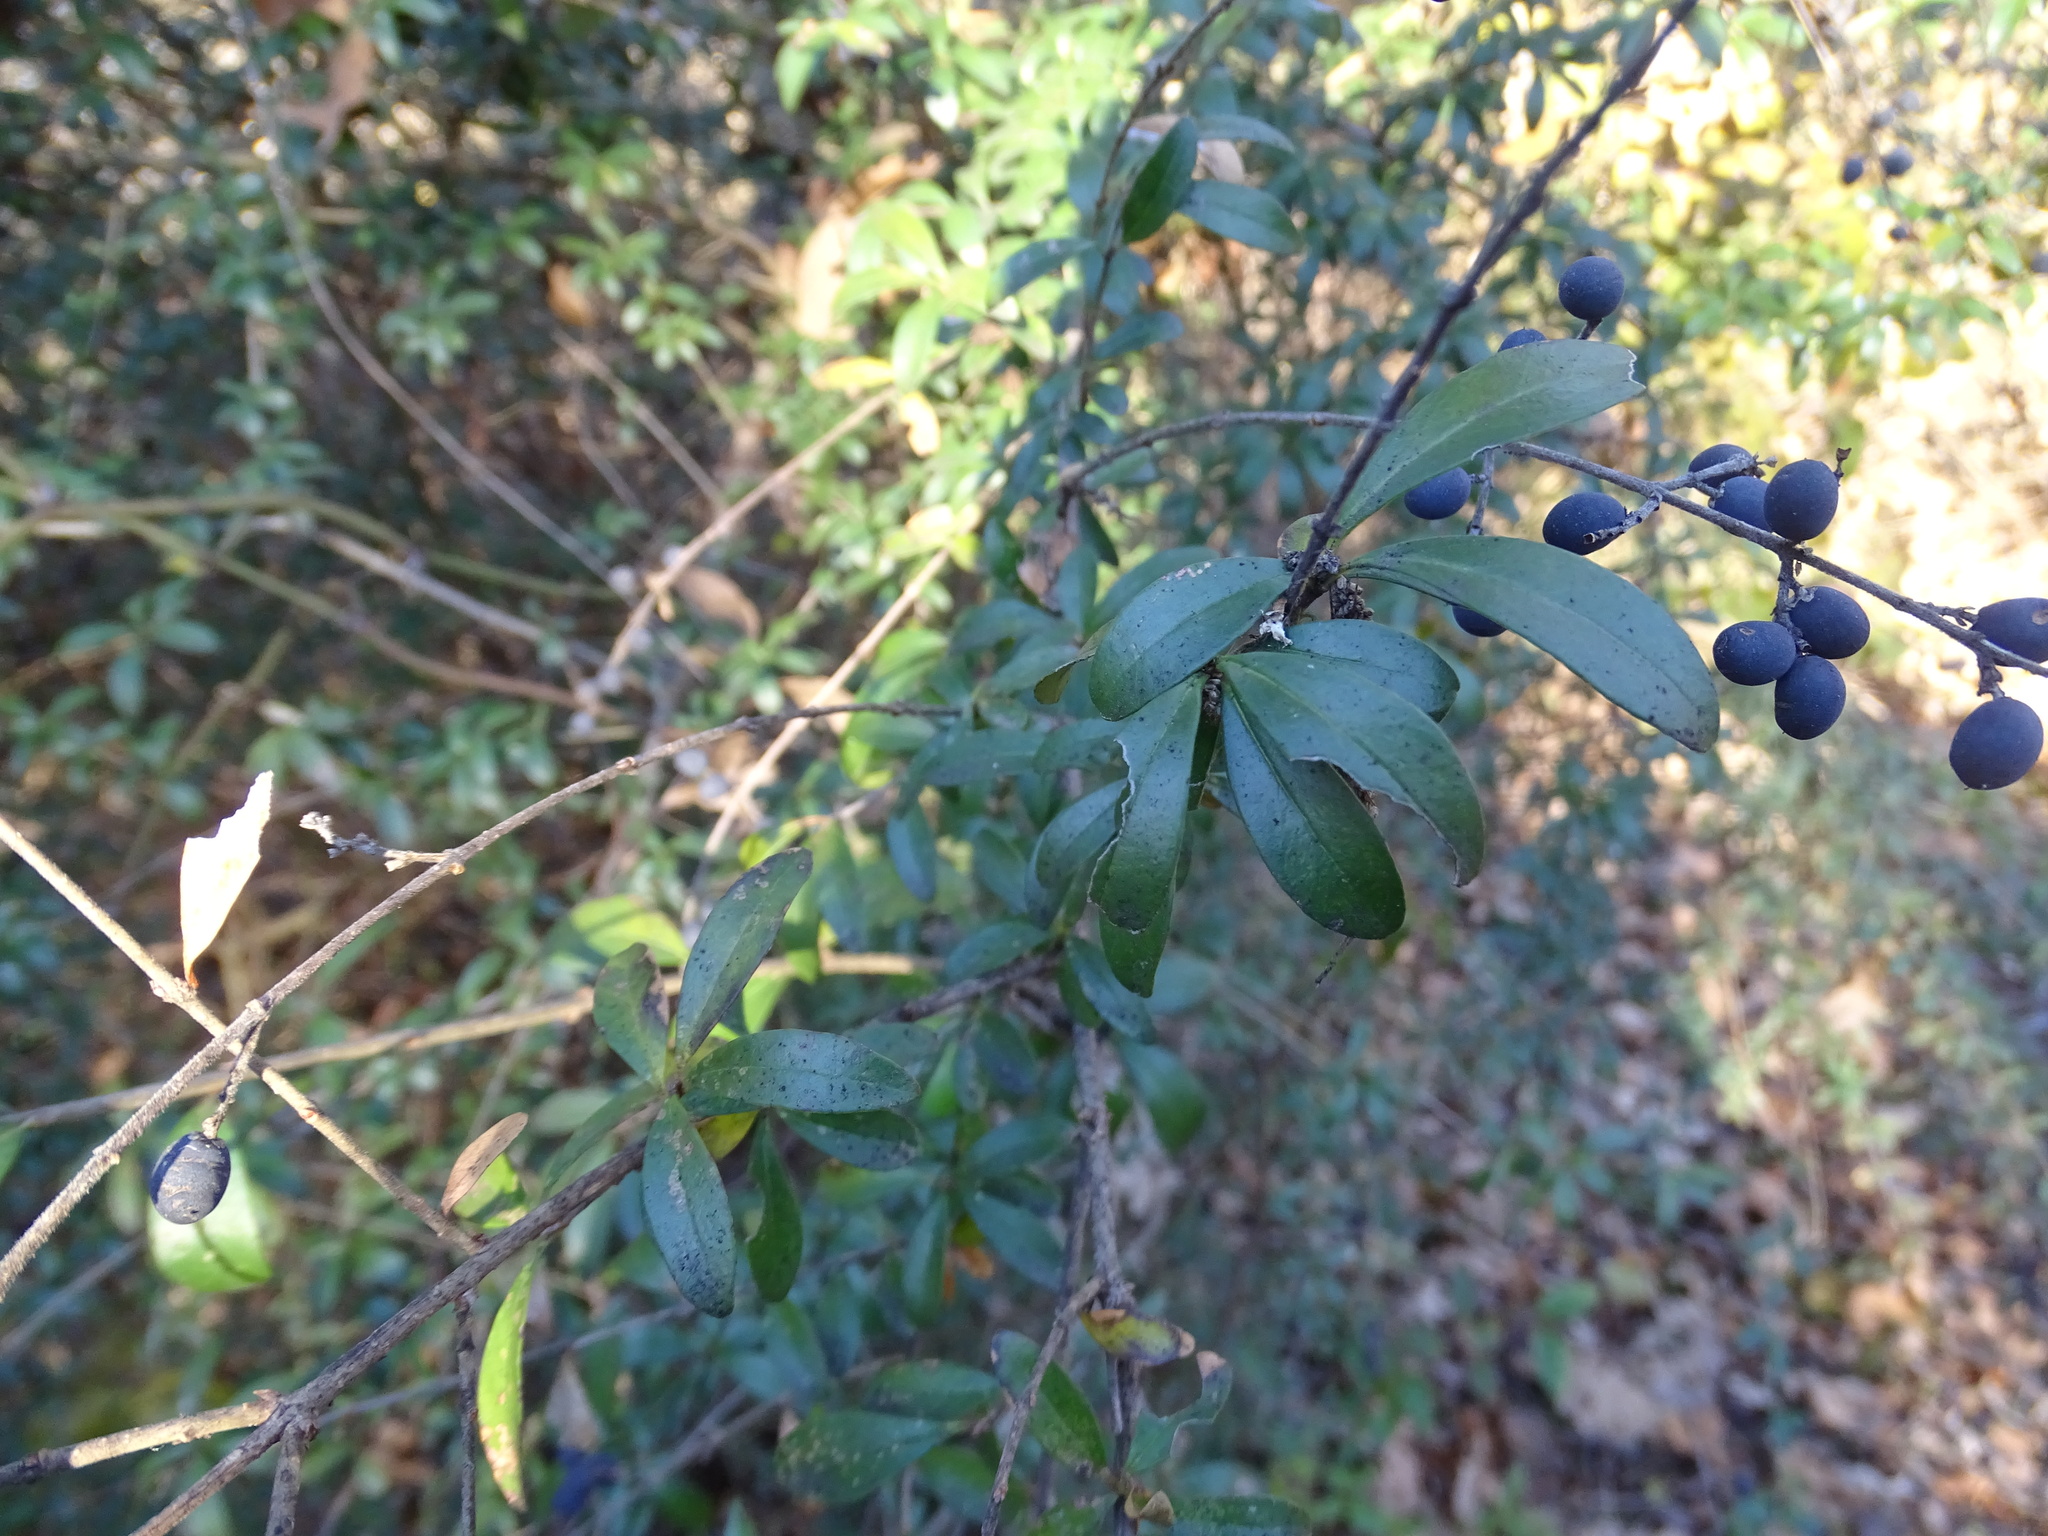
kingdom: Plantae
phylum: Tracheophyta
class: Magnoliopsida
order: Lamiales
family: Oleaceae
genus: Ligustrum
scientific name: Ligustrum quihoui
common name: Waxyleaf privet
